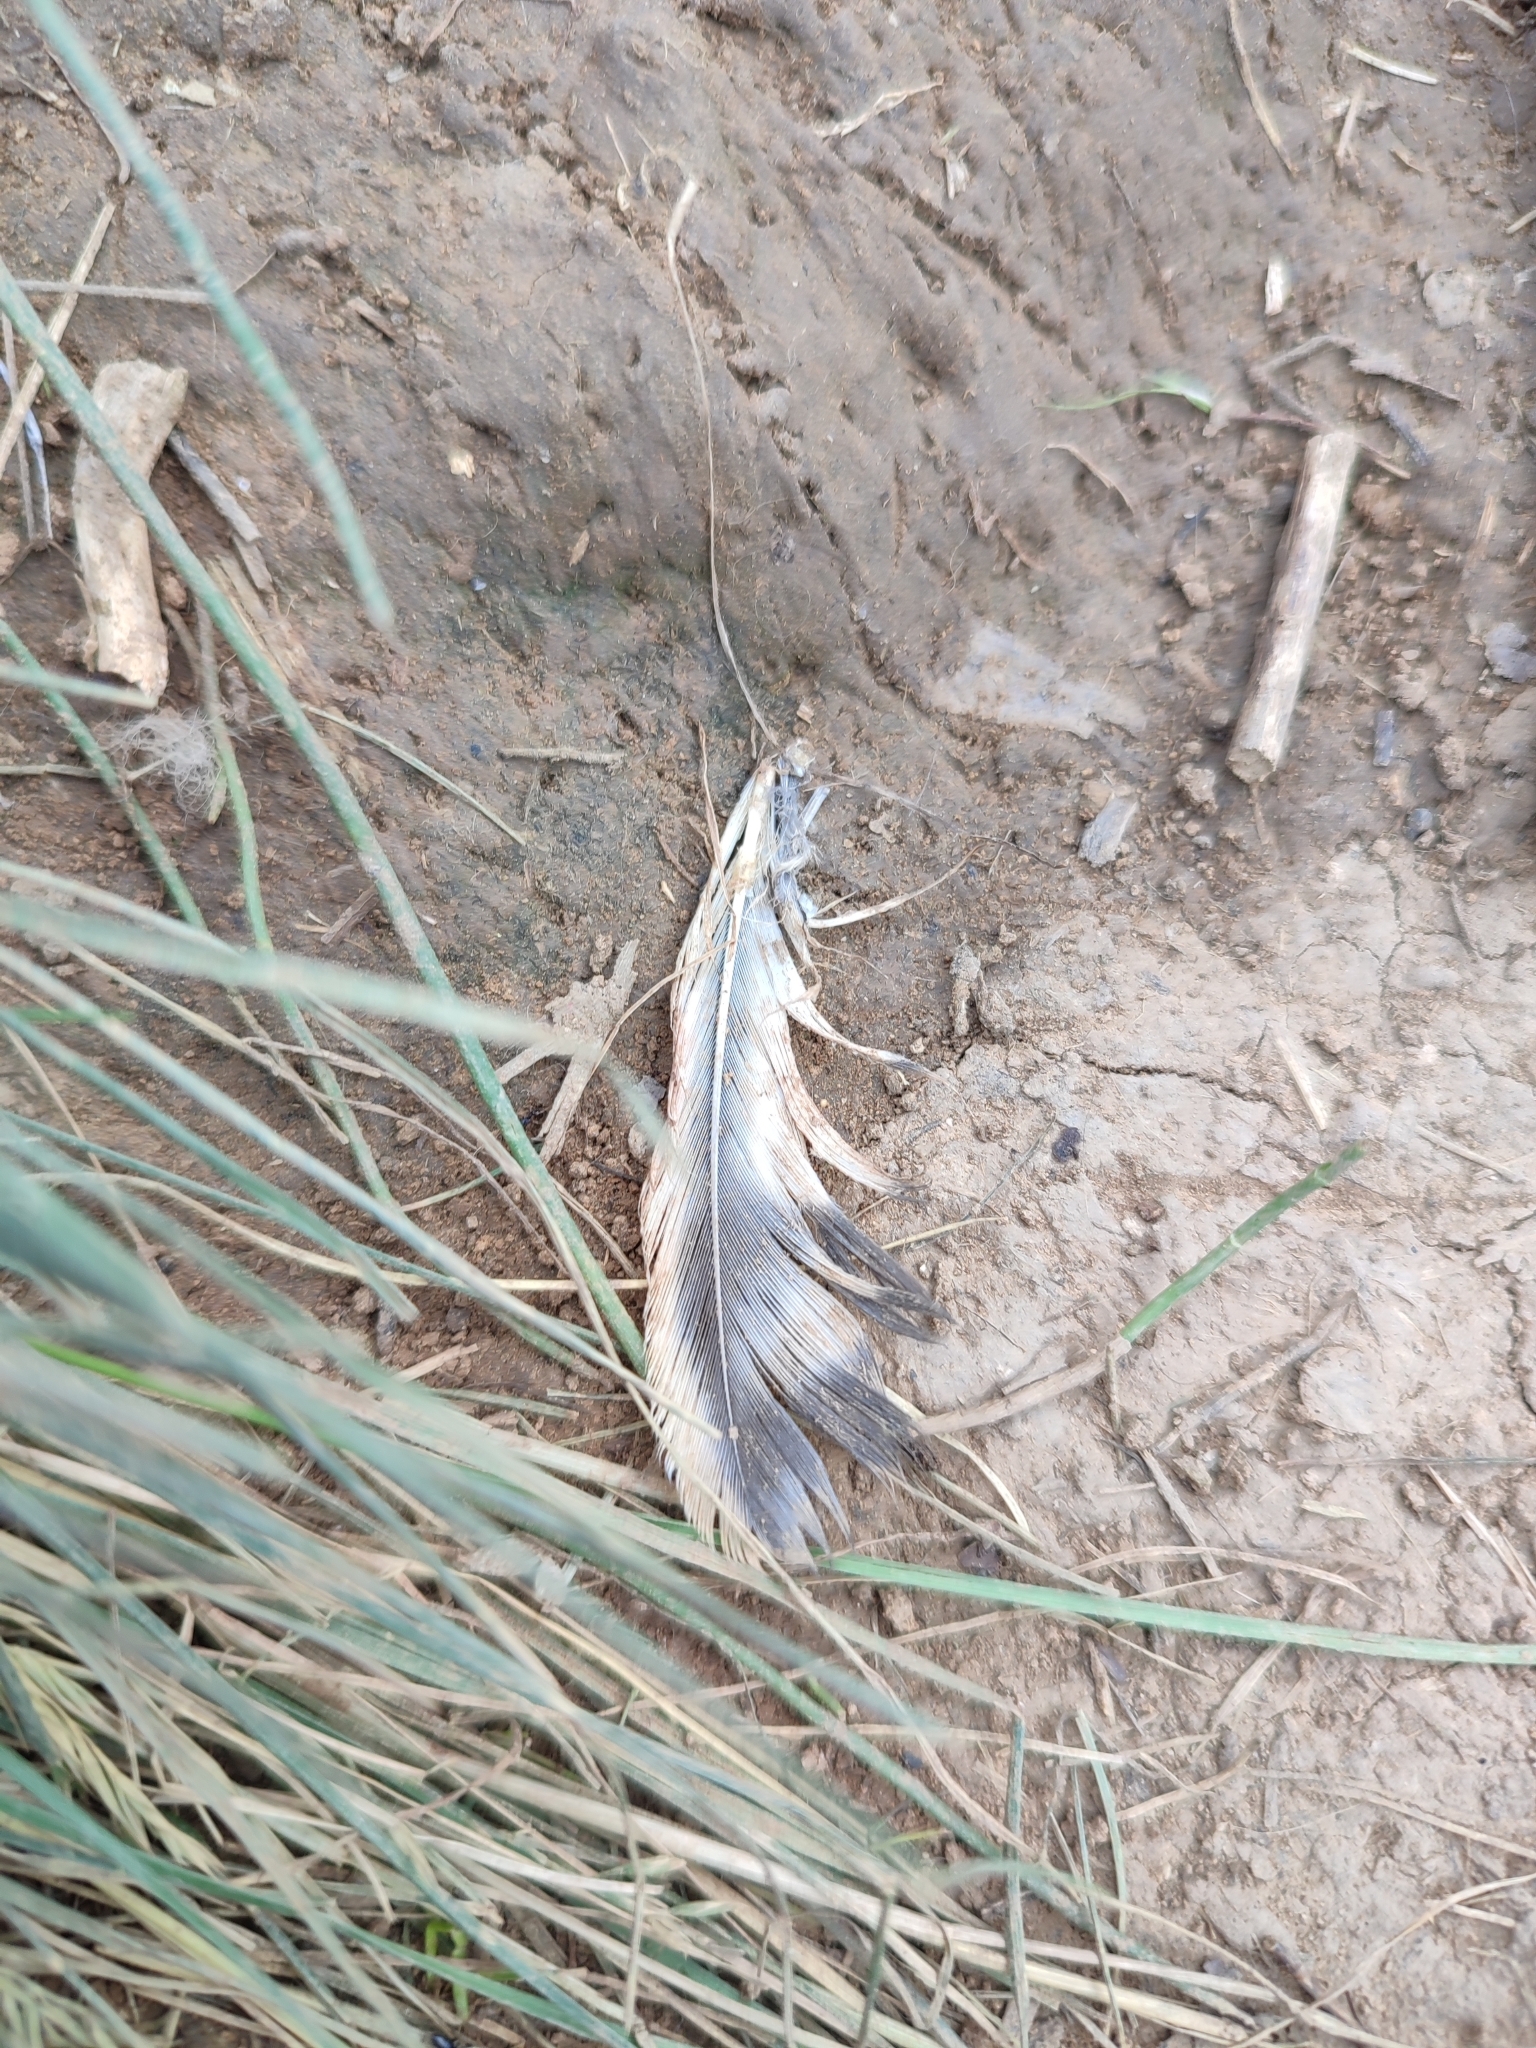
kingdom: Animalia
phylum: Chordata
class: Aves
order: Strigiformes
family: Strigidae
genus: Asio
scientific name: Asio flammeus
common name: Short-eared owl
